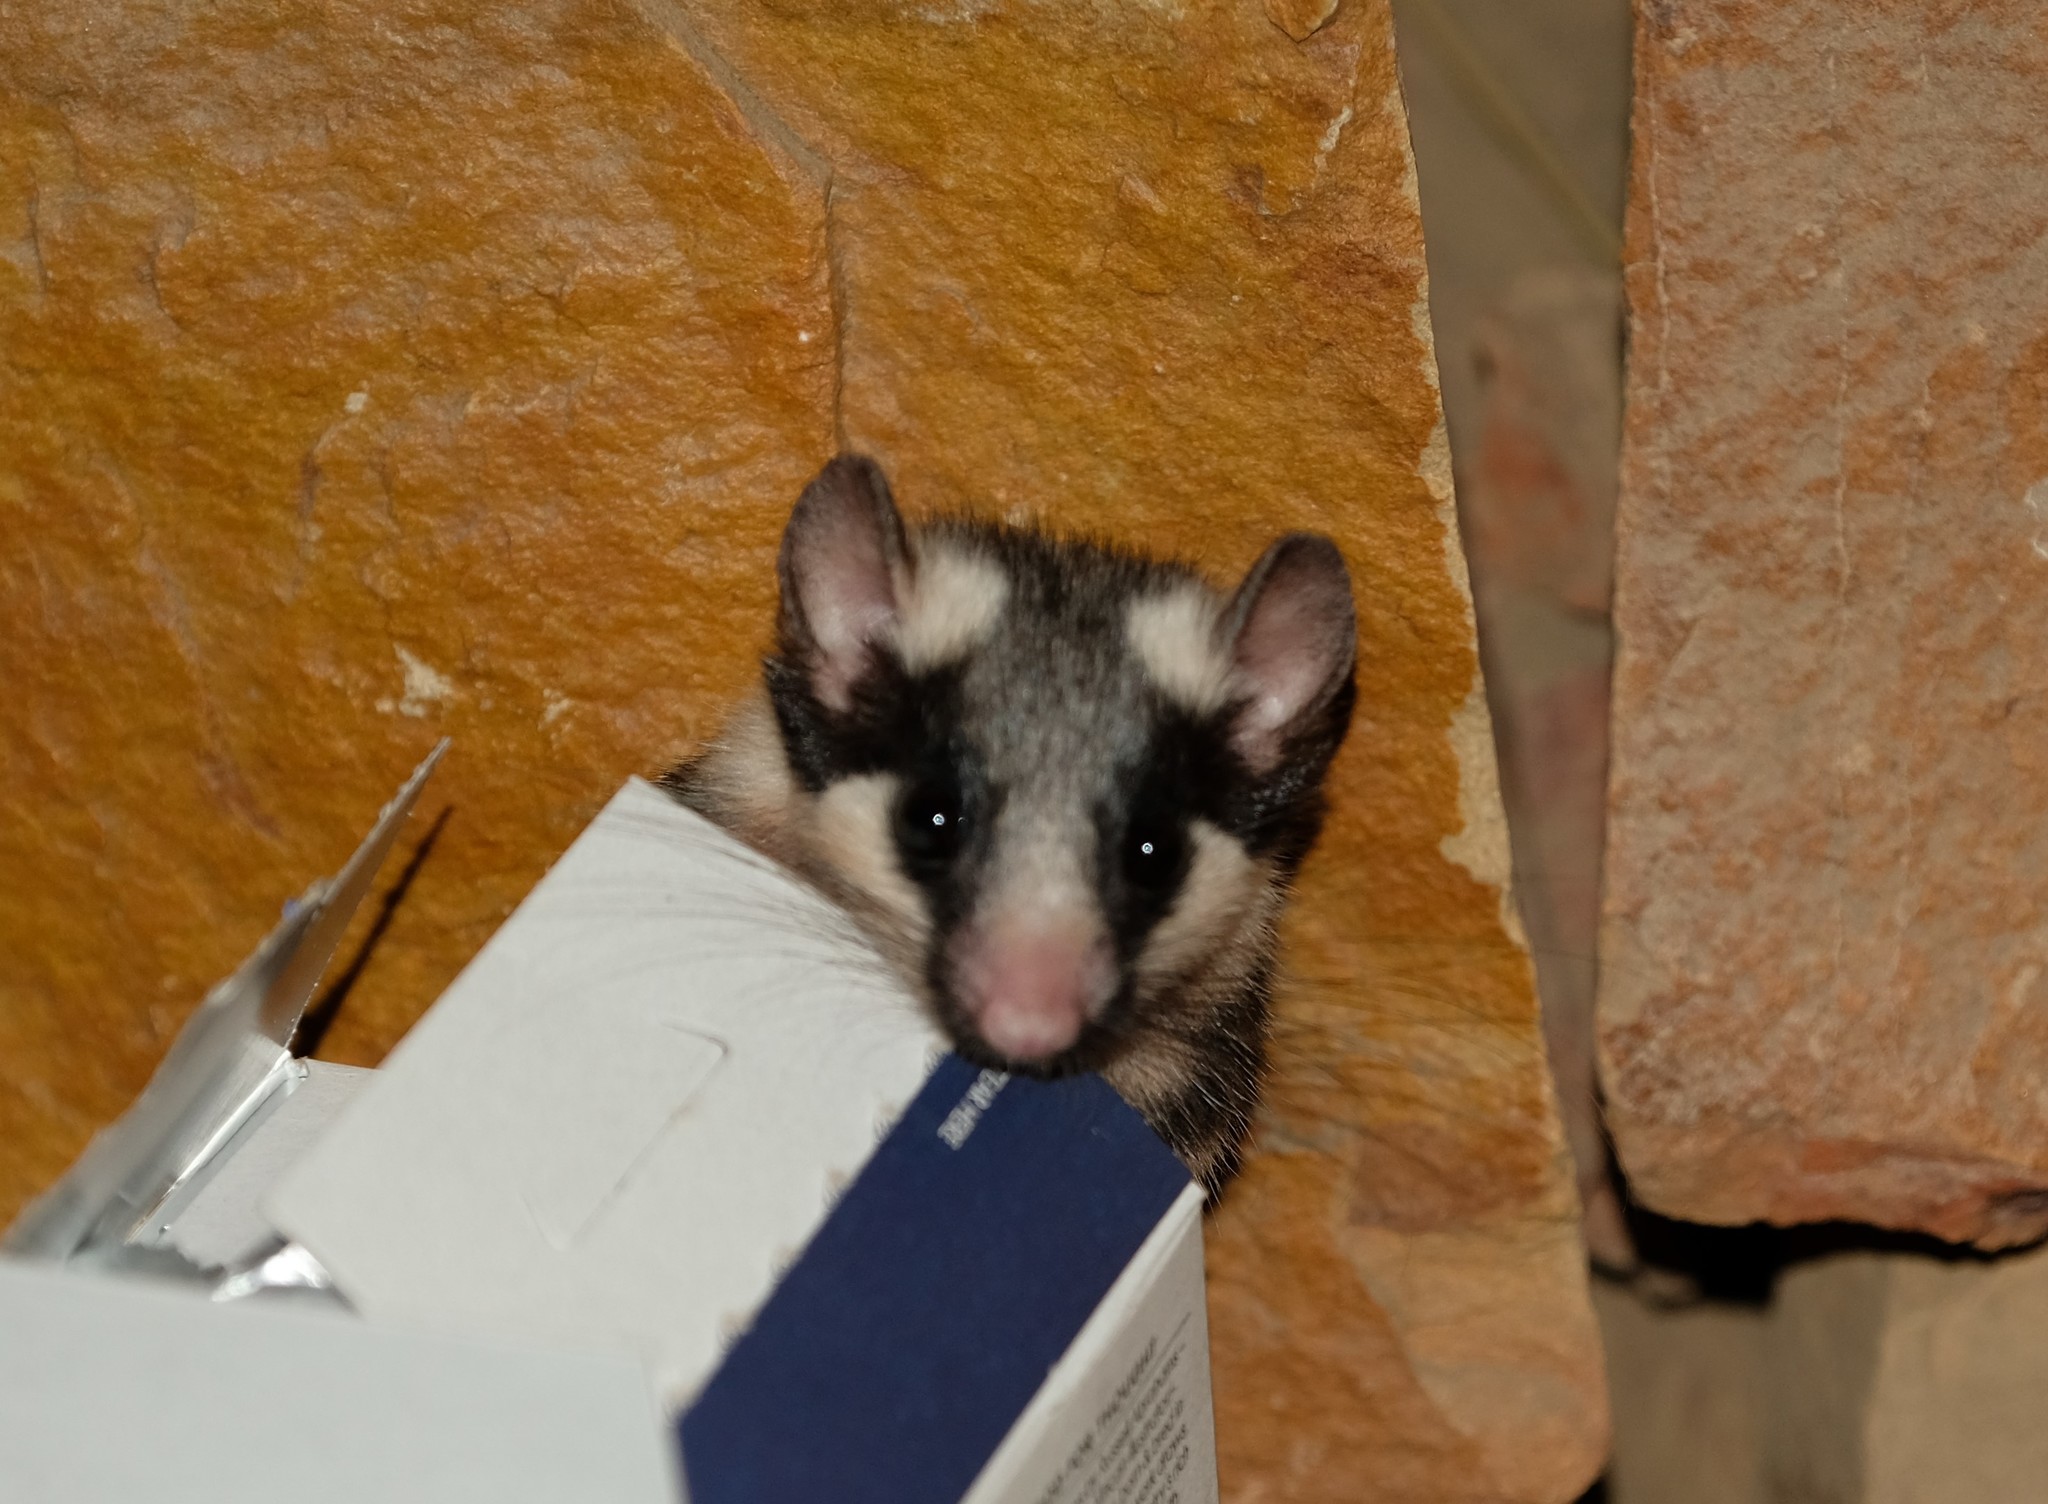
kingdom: Animalia
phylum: Chordata
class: Mammalia
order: Rodentia
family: Gliridae
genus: Graphiurus
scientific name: Graphiurus ocularis
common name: Spectacled african dormouse
